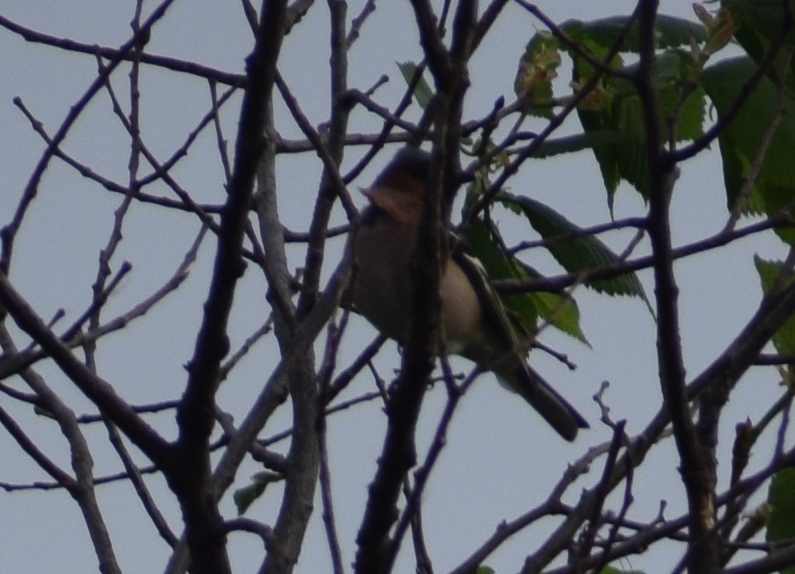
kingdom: Animalia
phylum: Chordata
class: Aves
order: Passeriformes
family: Fringillidae
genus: Fringilla
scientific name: Fringilla coelebs
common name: Common chaffinch
